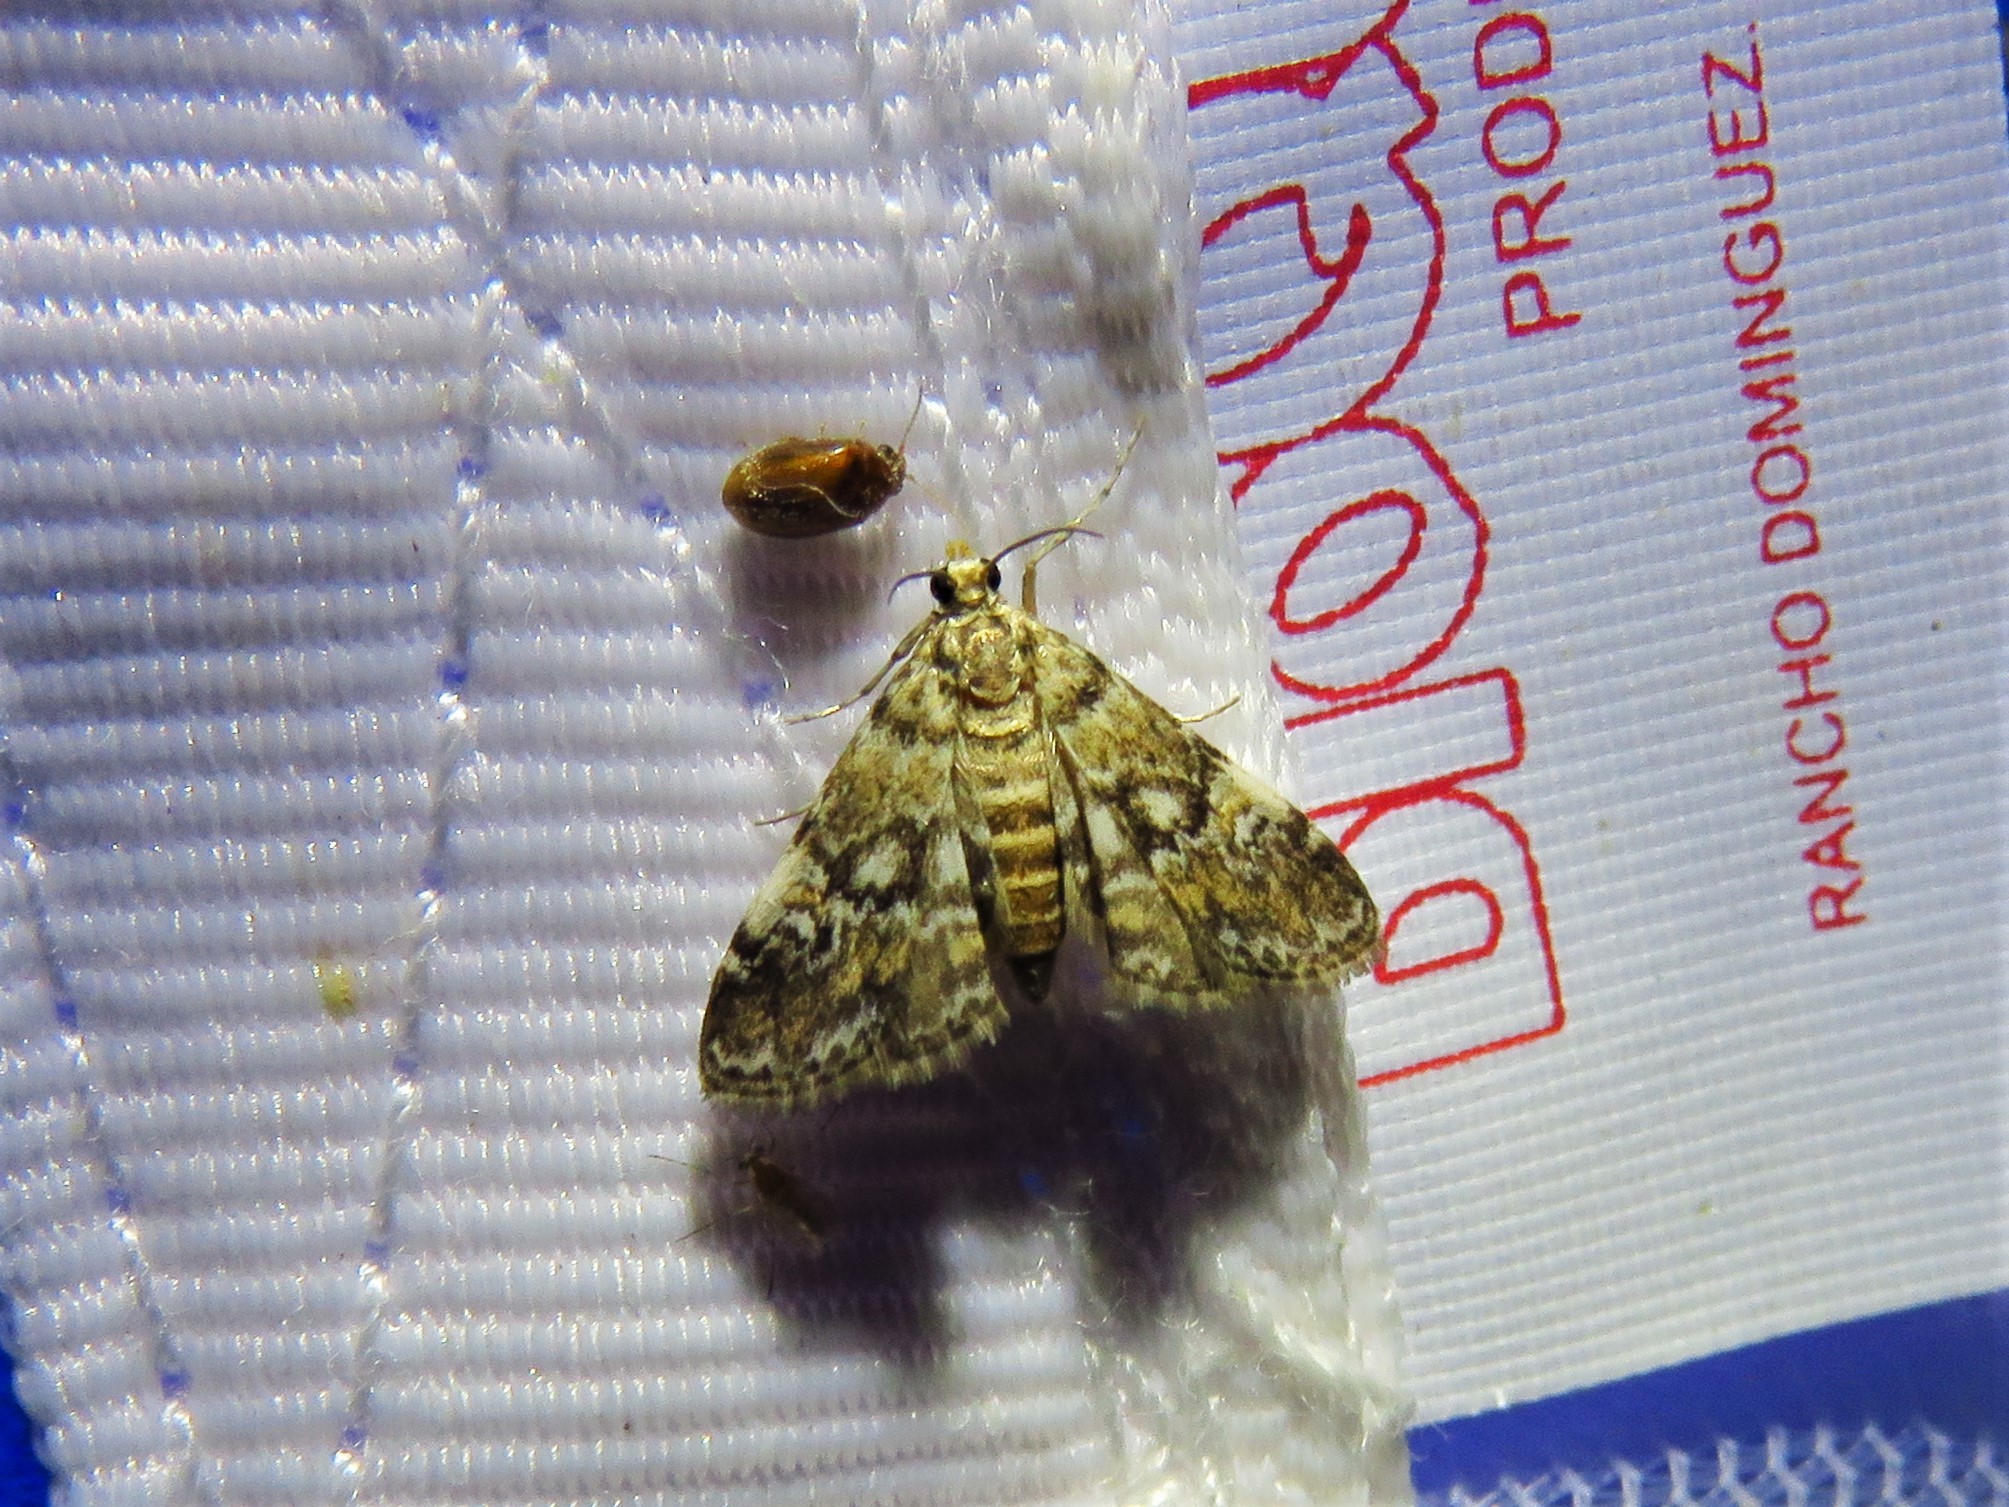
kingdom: Animalia
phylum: Arthropoda
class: Insecta
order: Lepidoptera
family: Crambidae
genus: Elophila
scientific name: Elophila obliteralis
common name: Waterlily leafcutter moth
